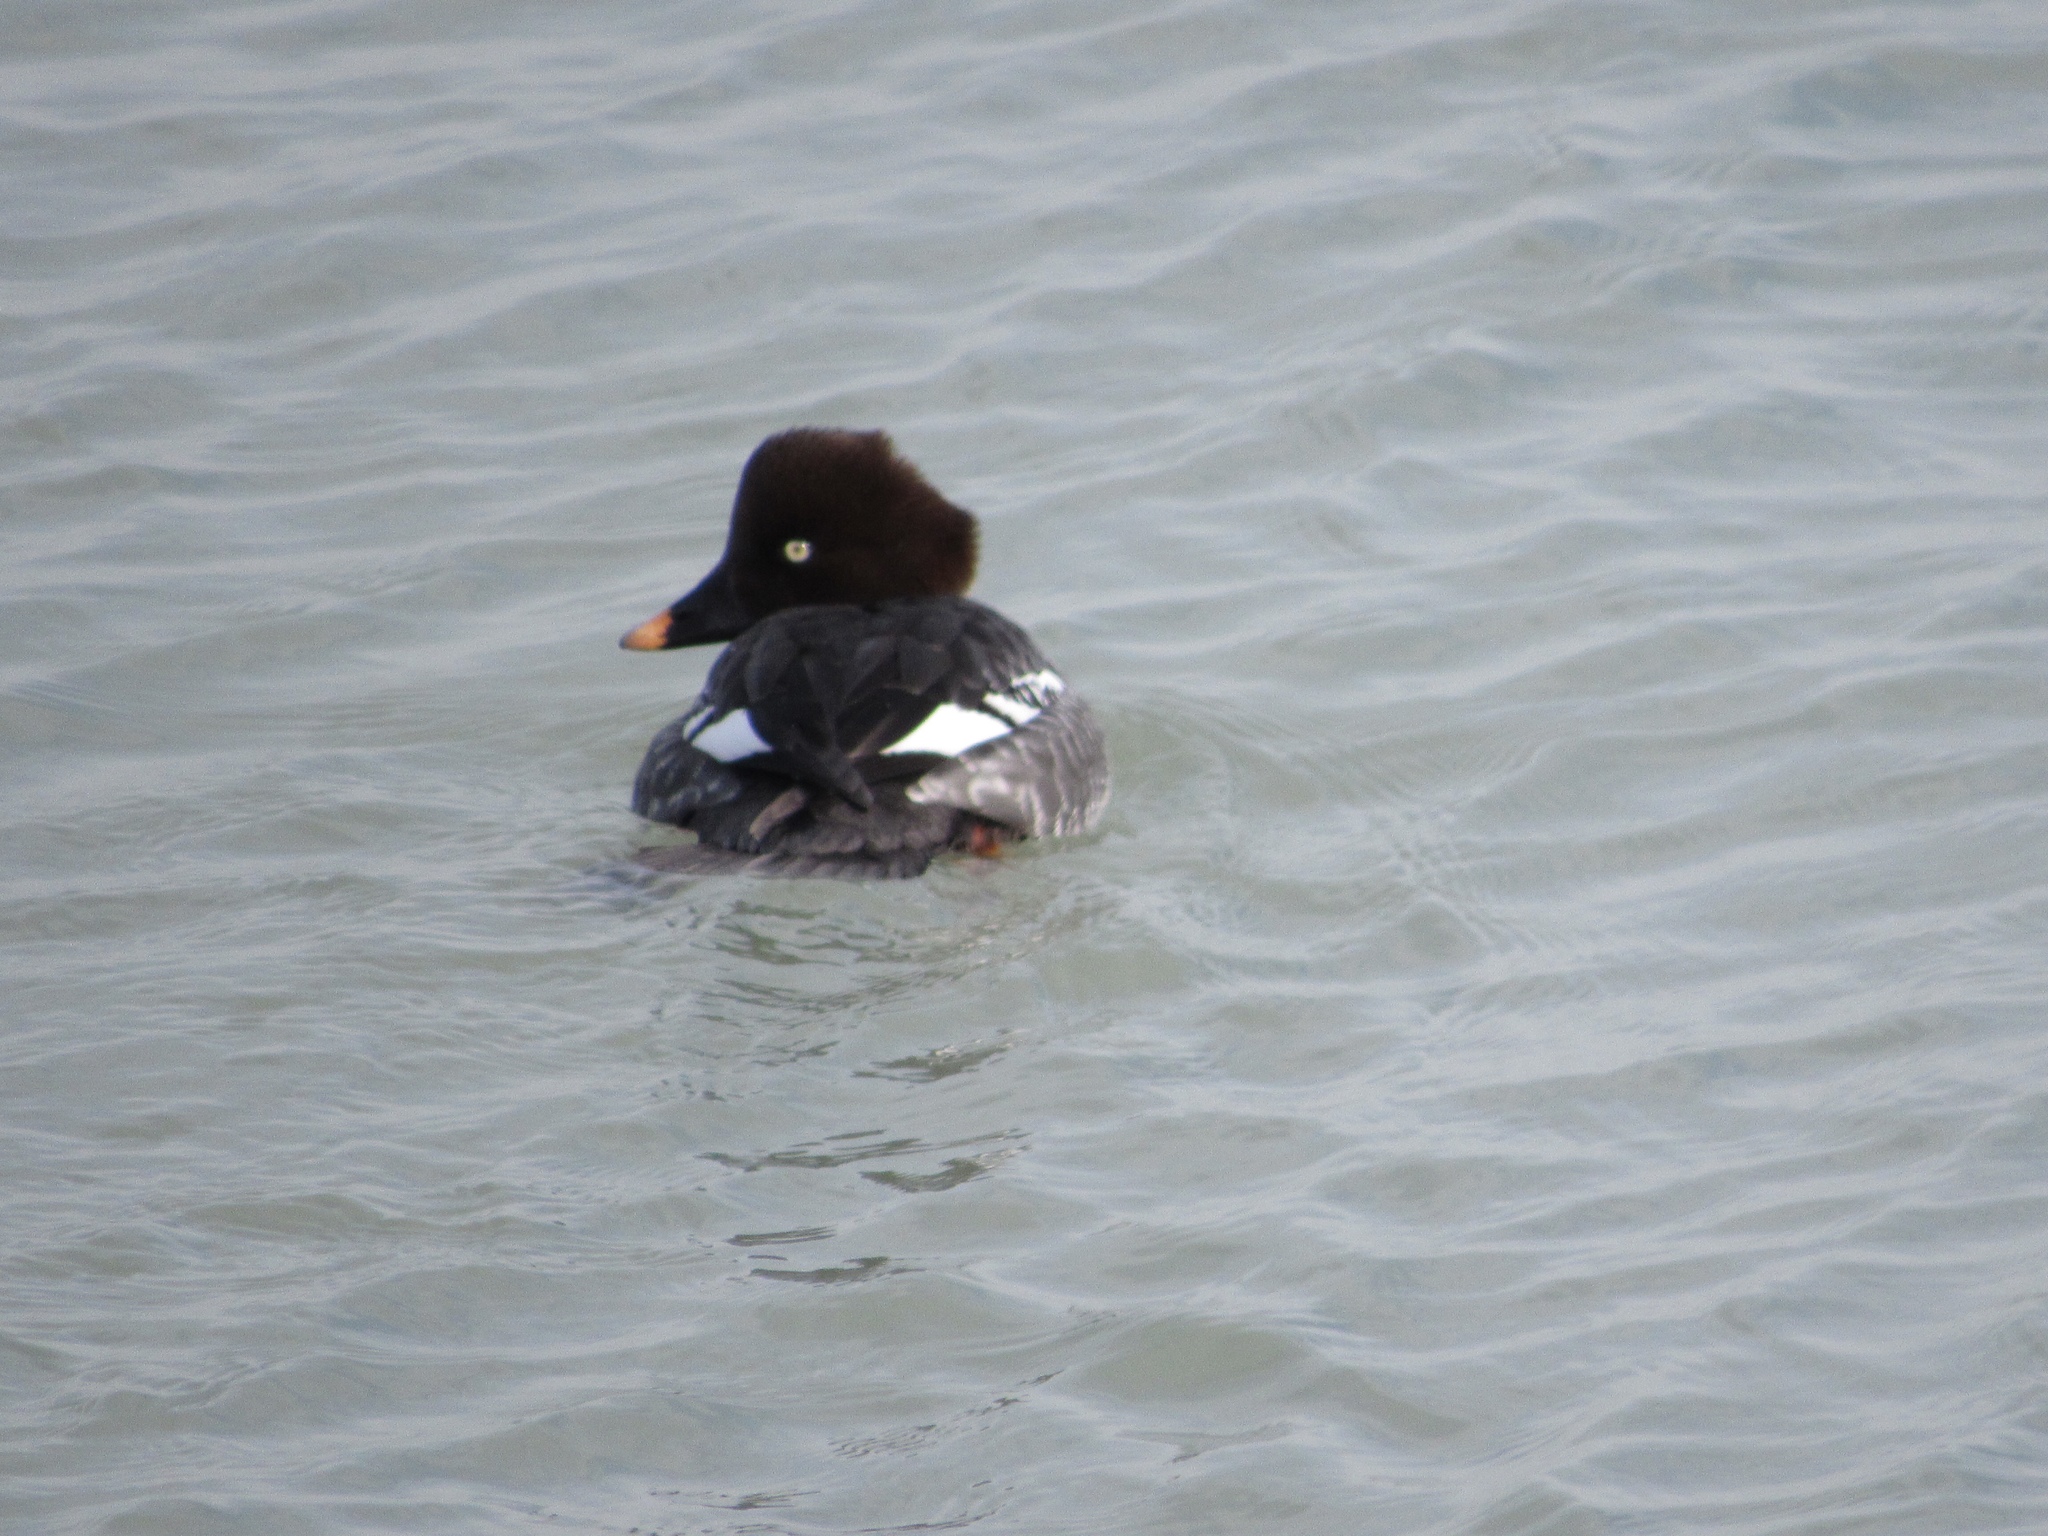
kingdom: Animalia
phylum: Chordata
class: Aves
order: Anseriformes
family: Anatidae
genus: Bucephala
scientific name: Bucephala clangula
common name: Common goldeneye
